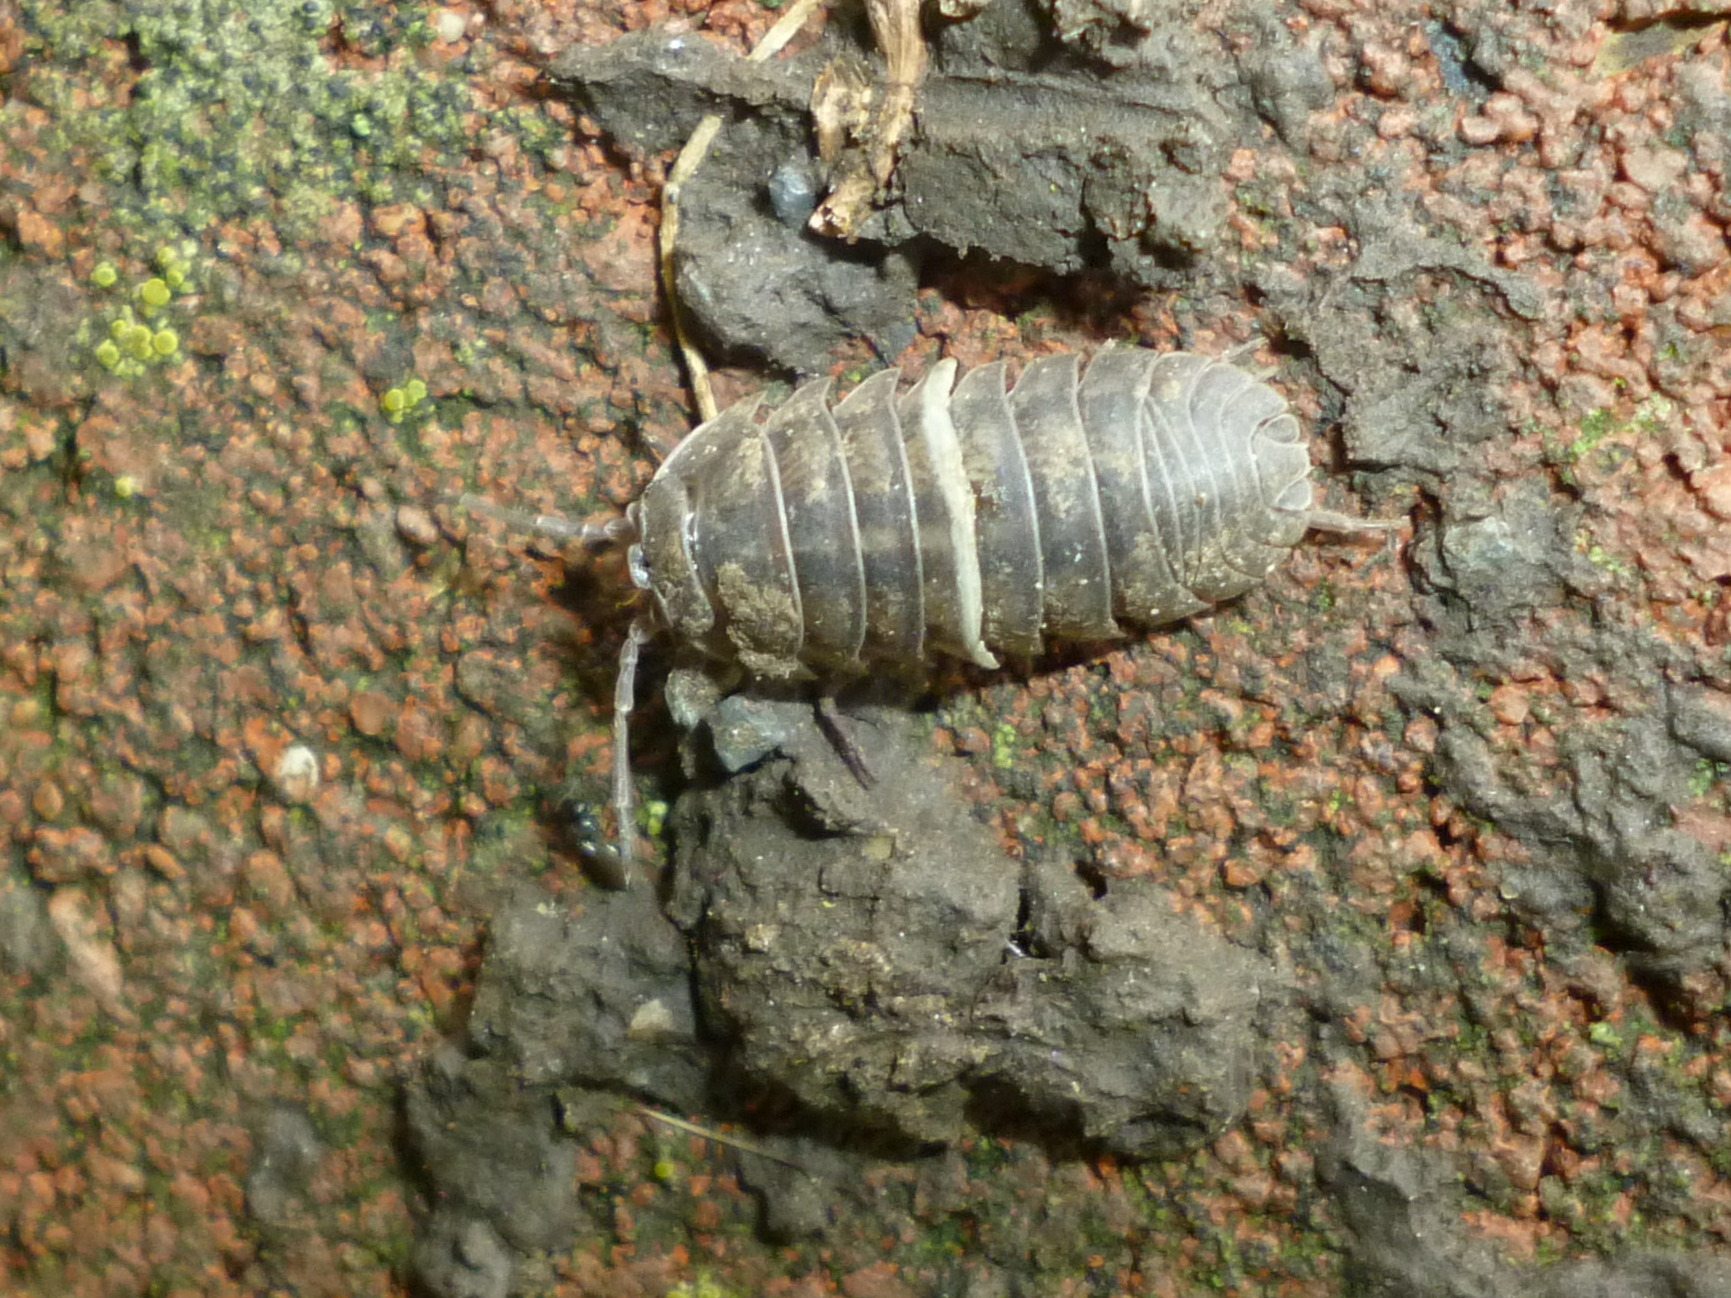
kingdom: Animalia
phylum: Arthropoda
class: Malacostraca
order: Isopoda
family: Armadillidiidae
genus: Armadillidium
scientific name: Armadillidium nasatum
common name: Isopod
